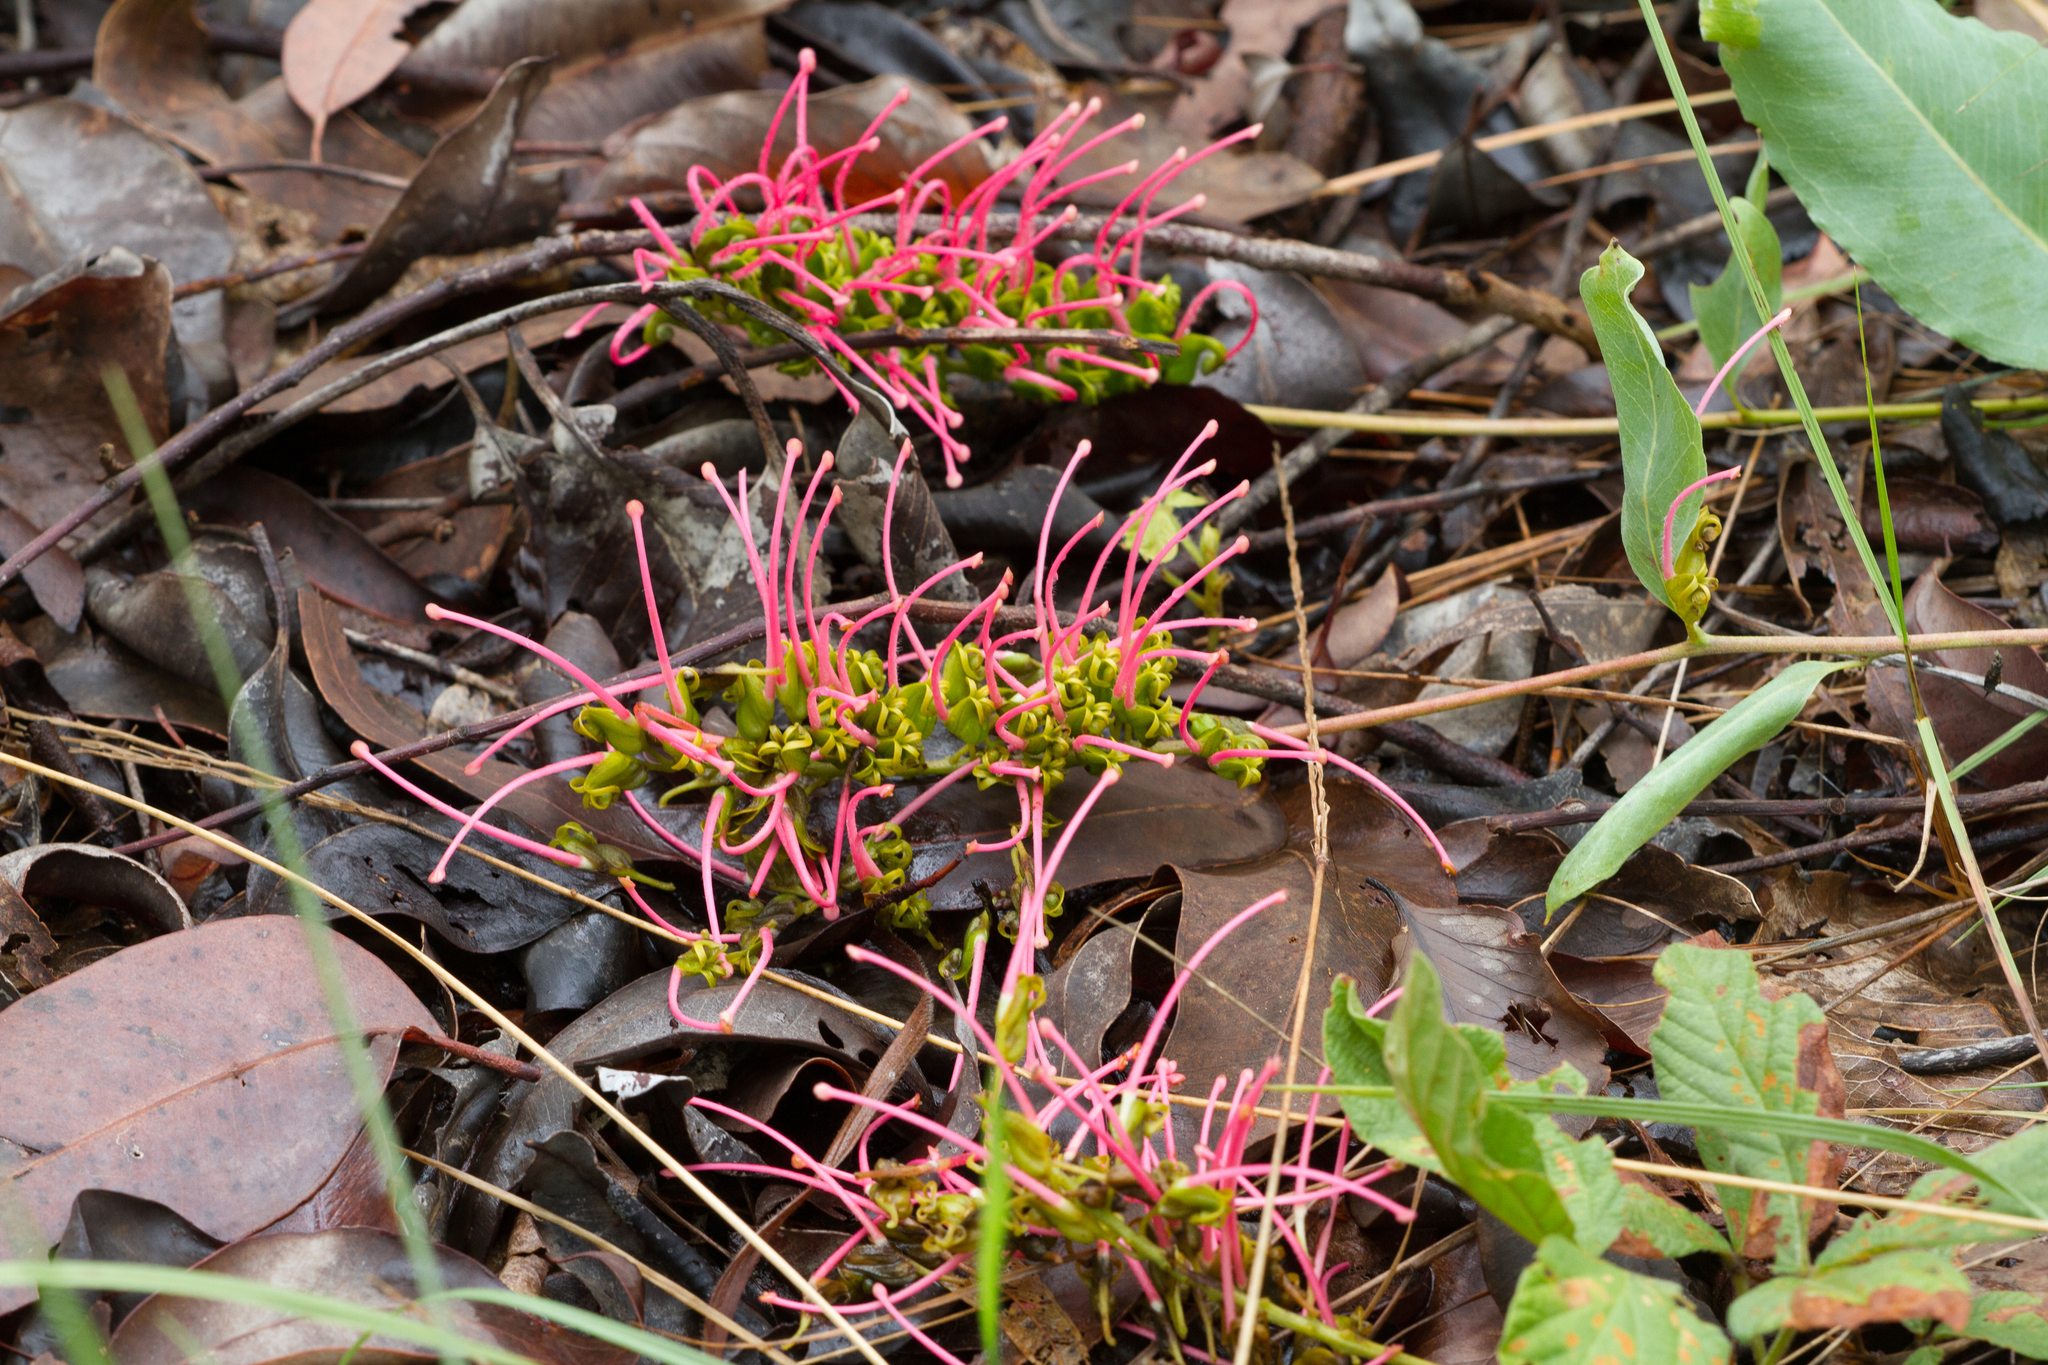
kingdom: Plantae
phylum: Tracheophyta
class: Magnoliopsida
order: Proteales
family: Proteaceae
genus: Grevillea
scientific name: Grevillea goodii
